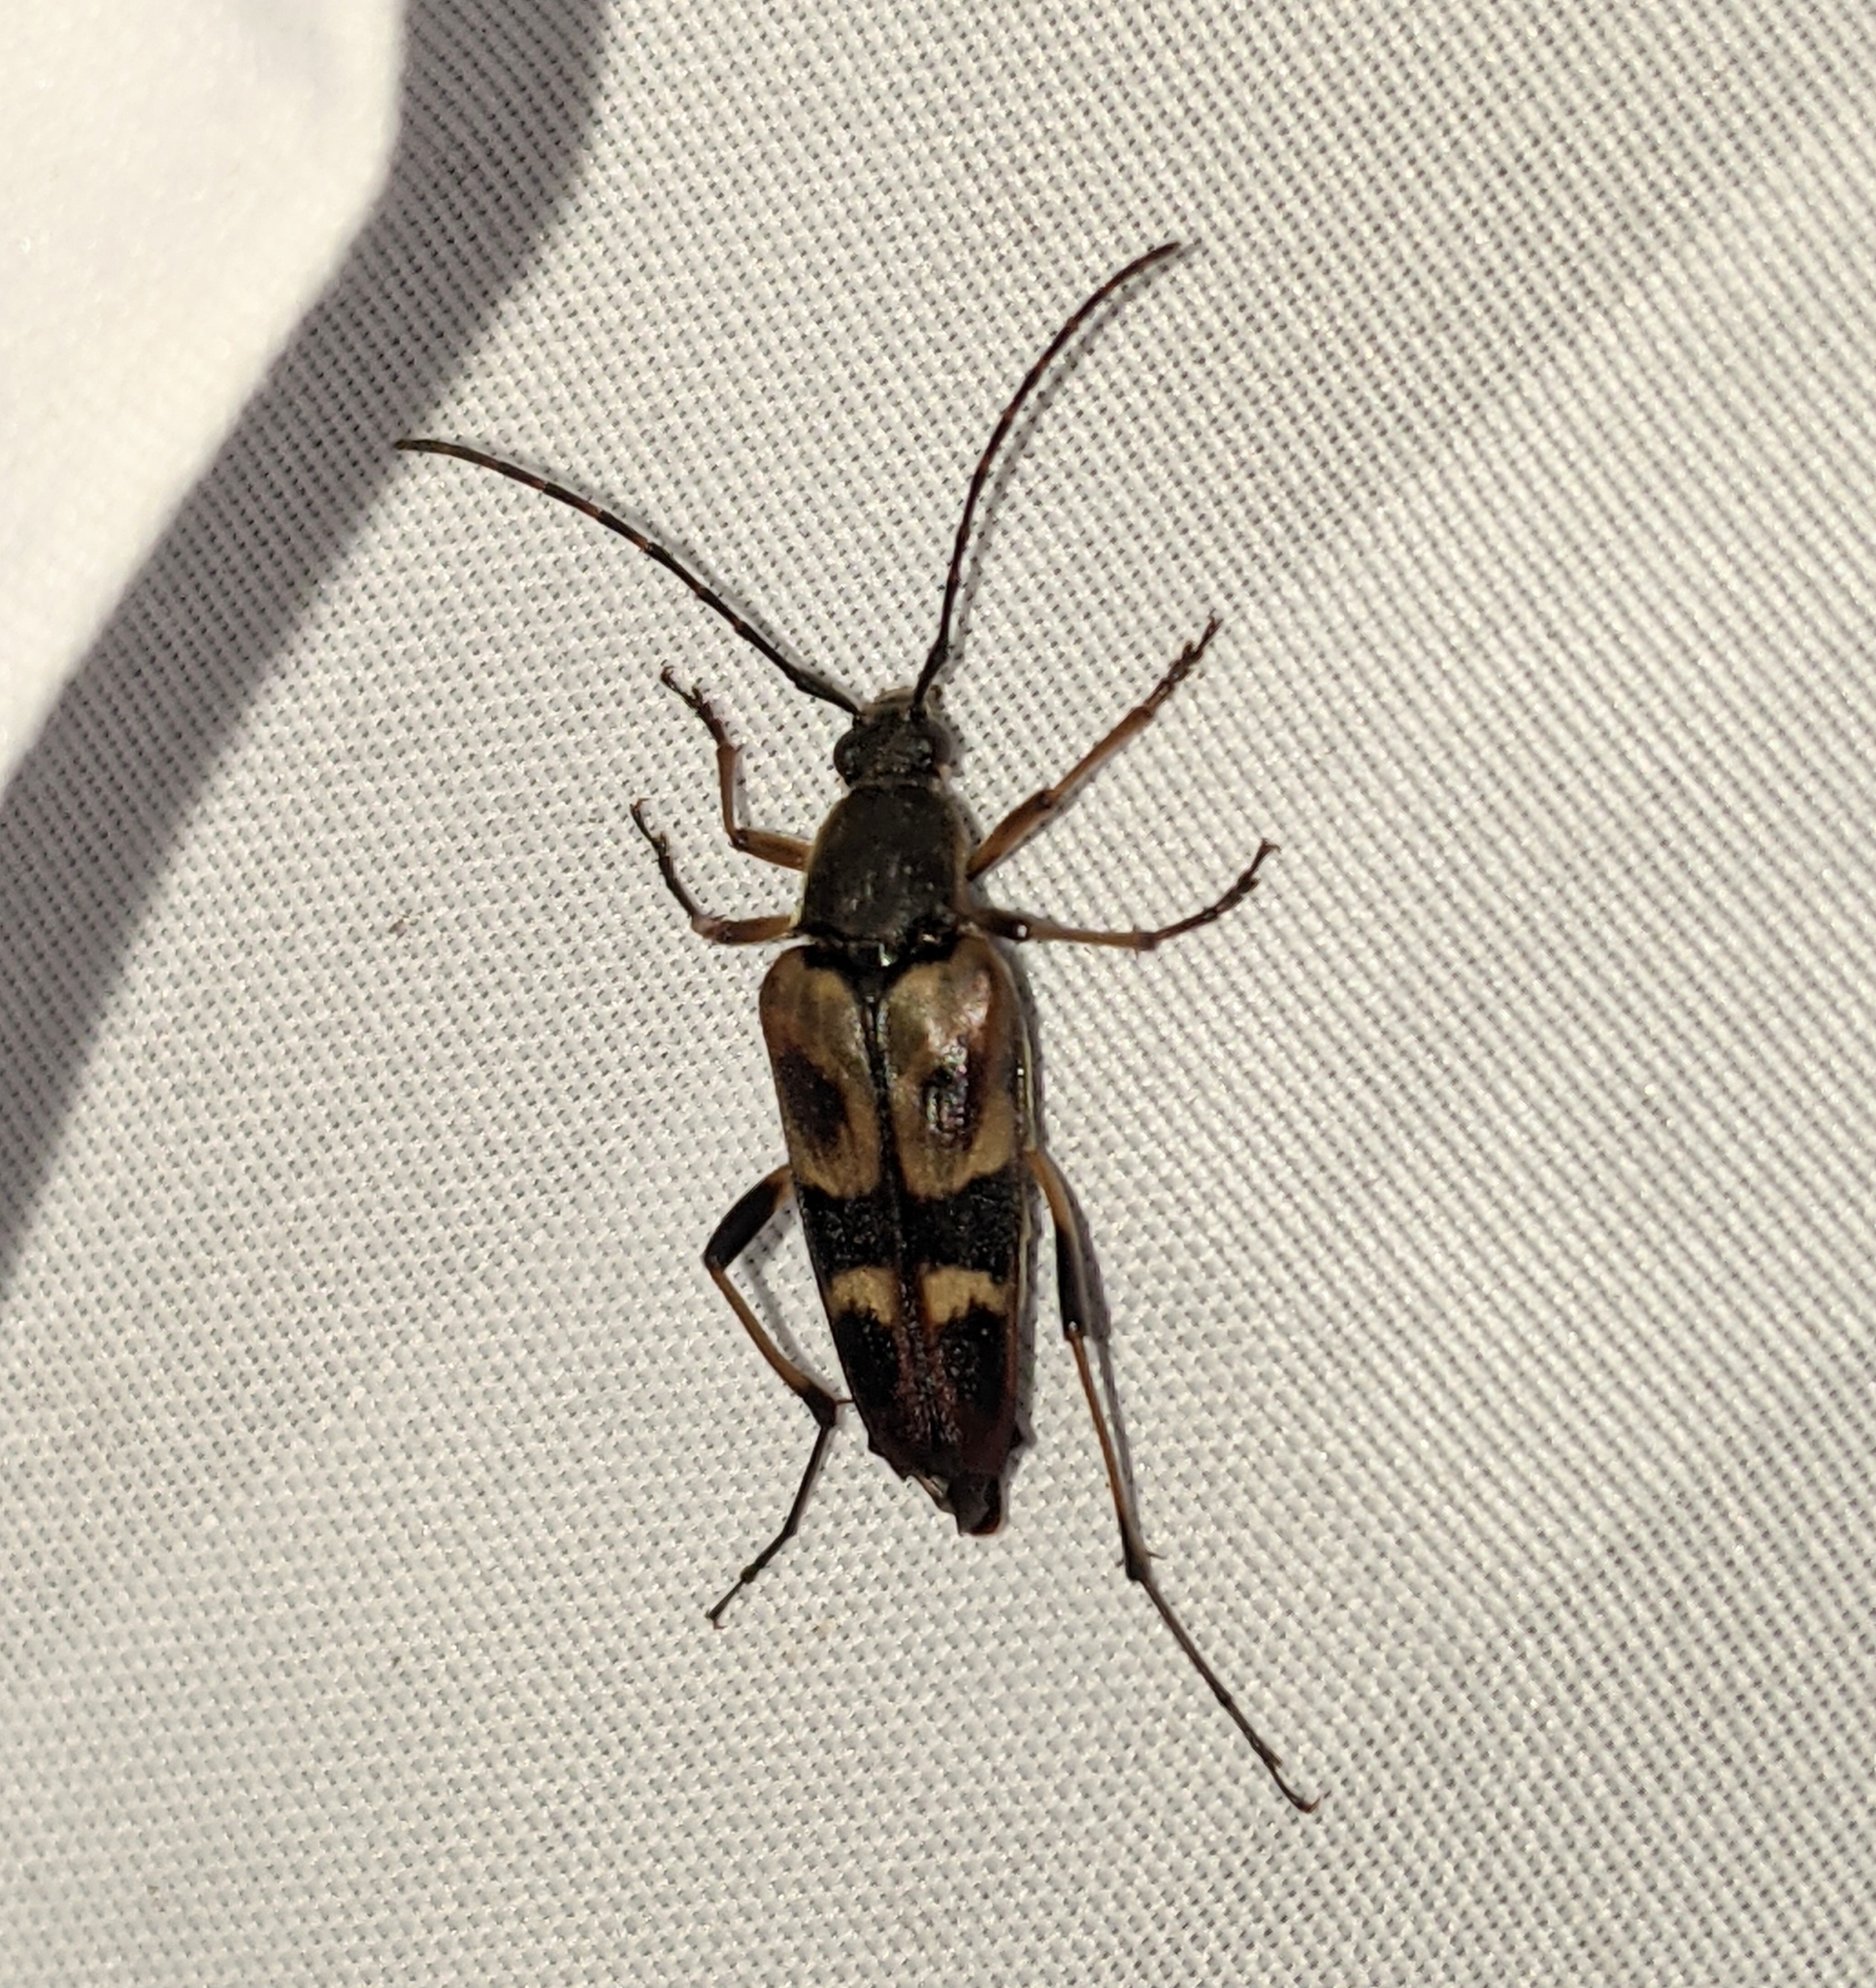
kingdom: Animalia
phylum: Arthropoda
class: Insecta
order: Coleoptera
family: Cerambycidae
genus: Etorofus
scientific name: Etorofus obliteratus
